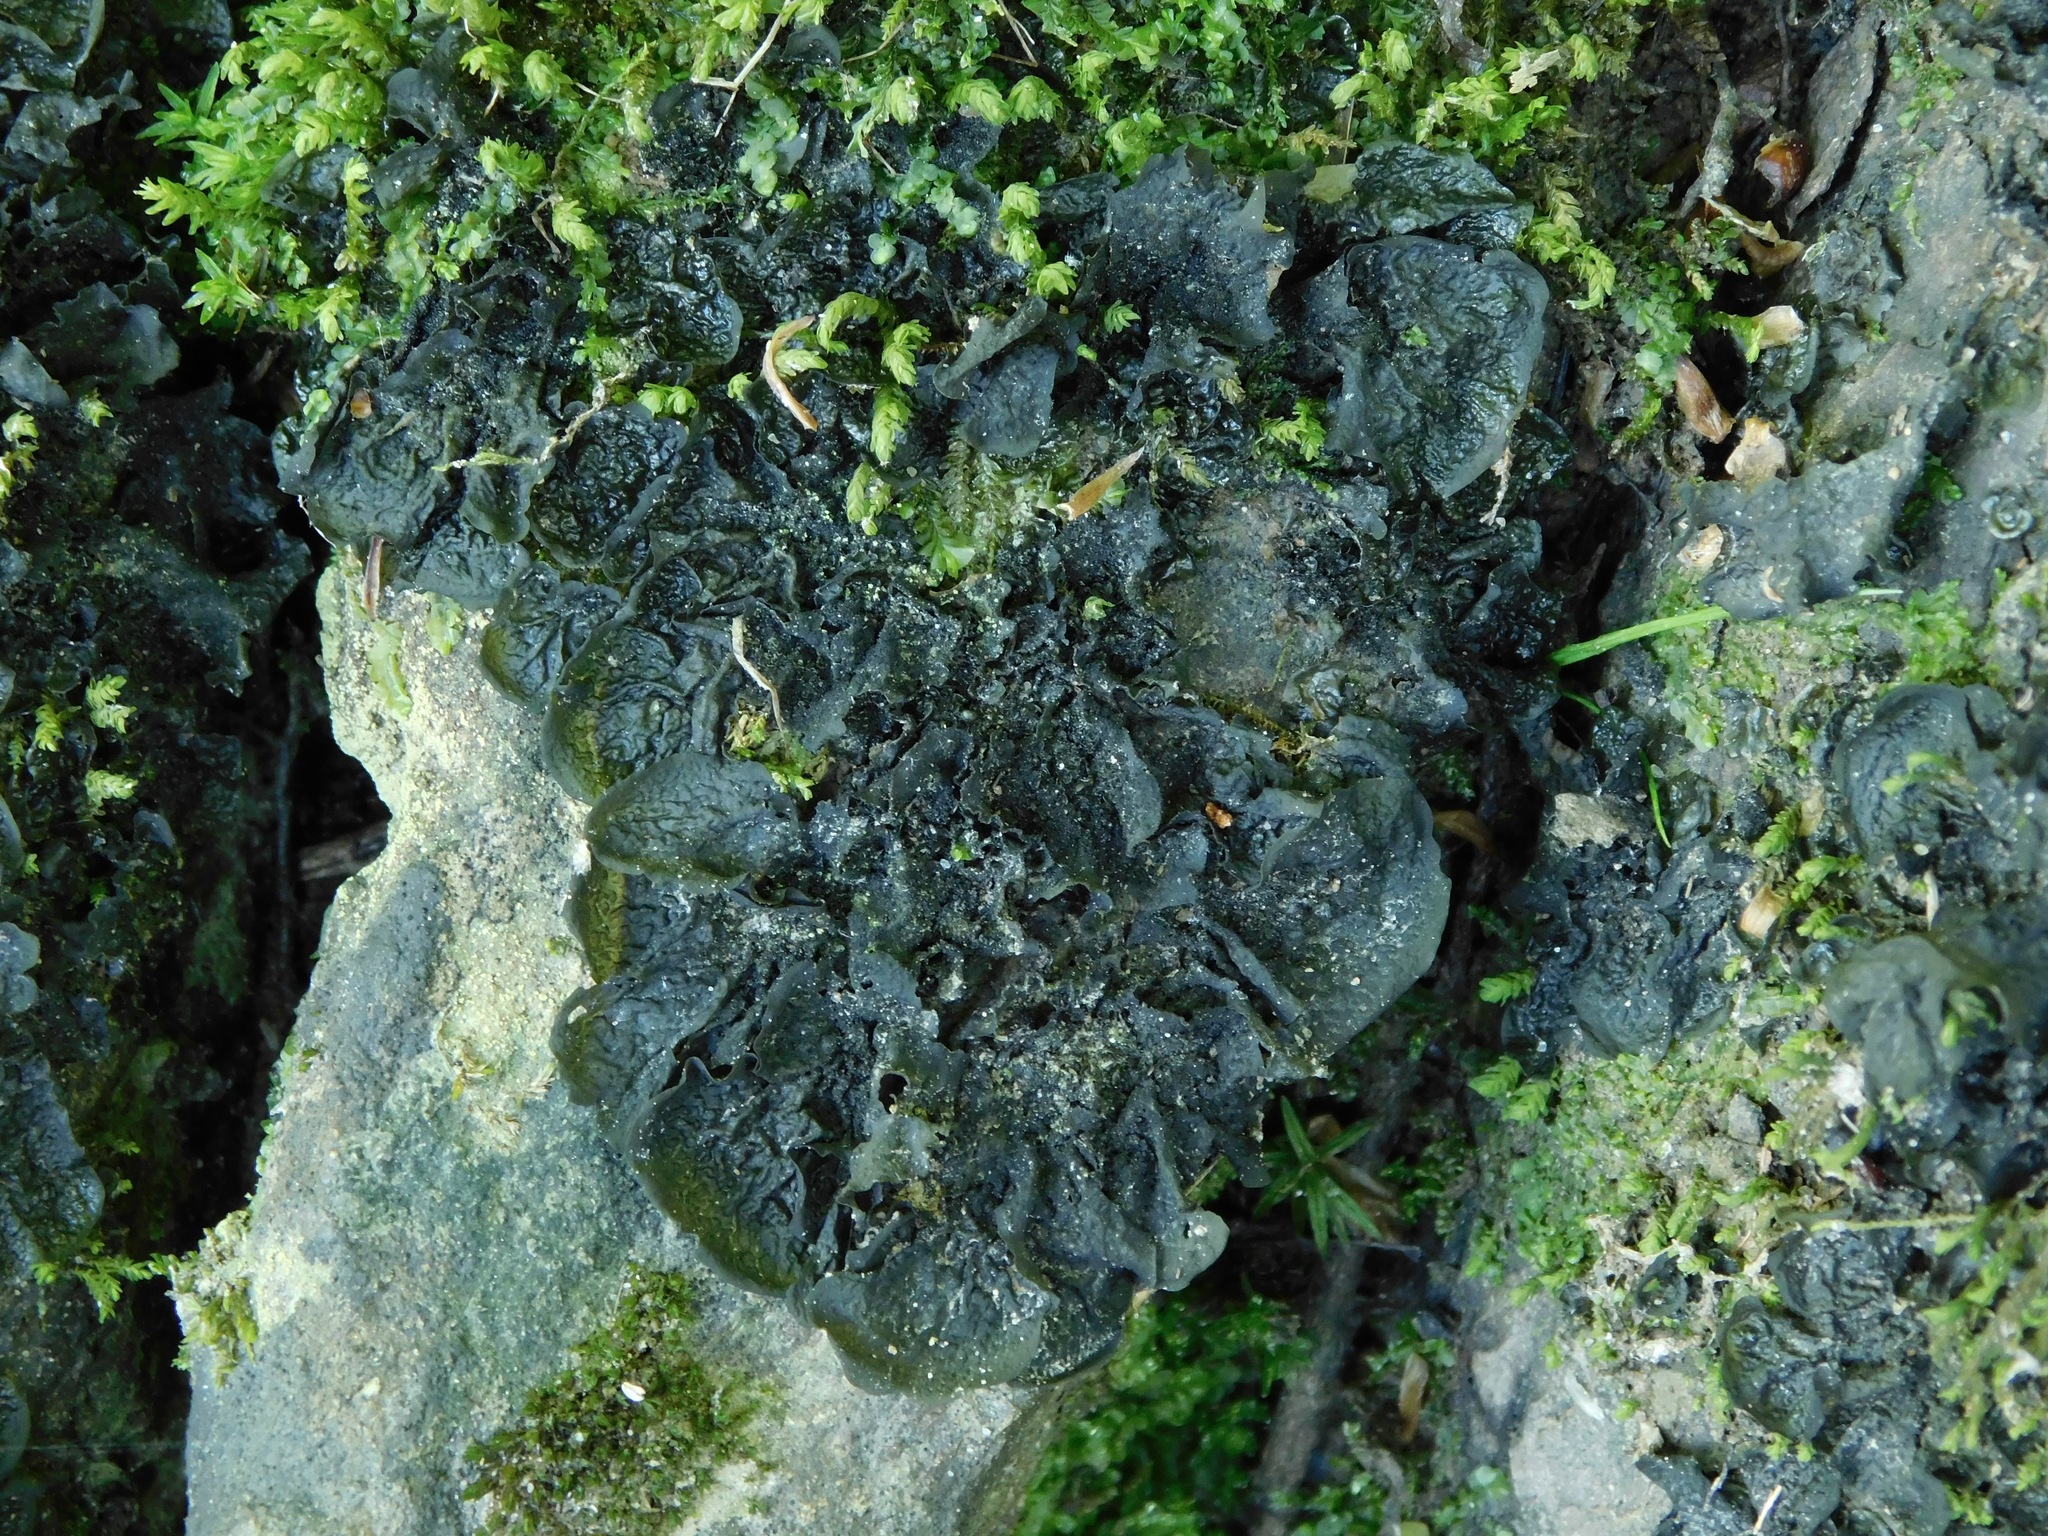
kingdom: Fungi
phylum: Ascomycota
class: Lecanoromycetes
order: Peltigerales
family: Collemataceae
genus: Collema
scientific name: Collema furfuraceum
